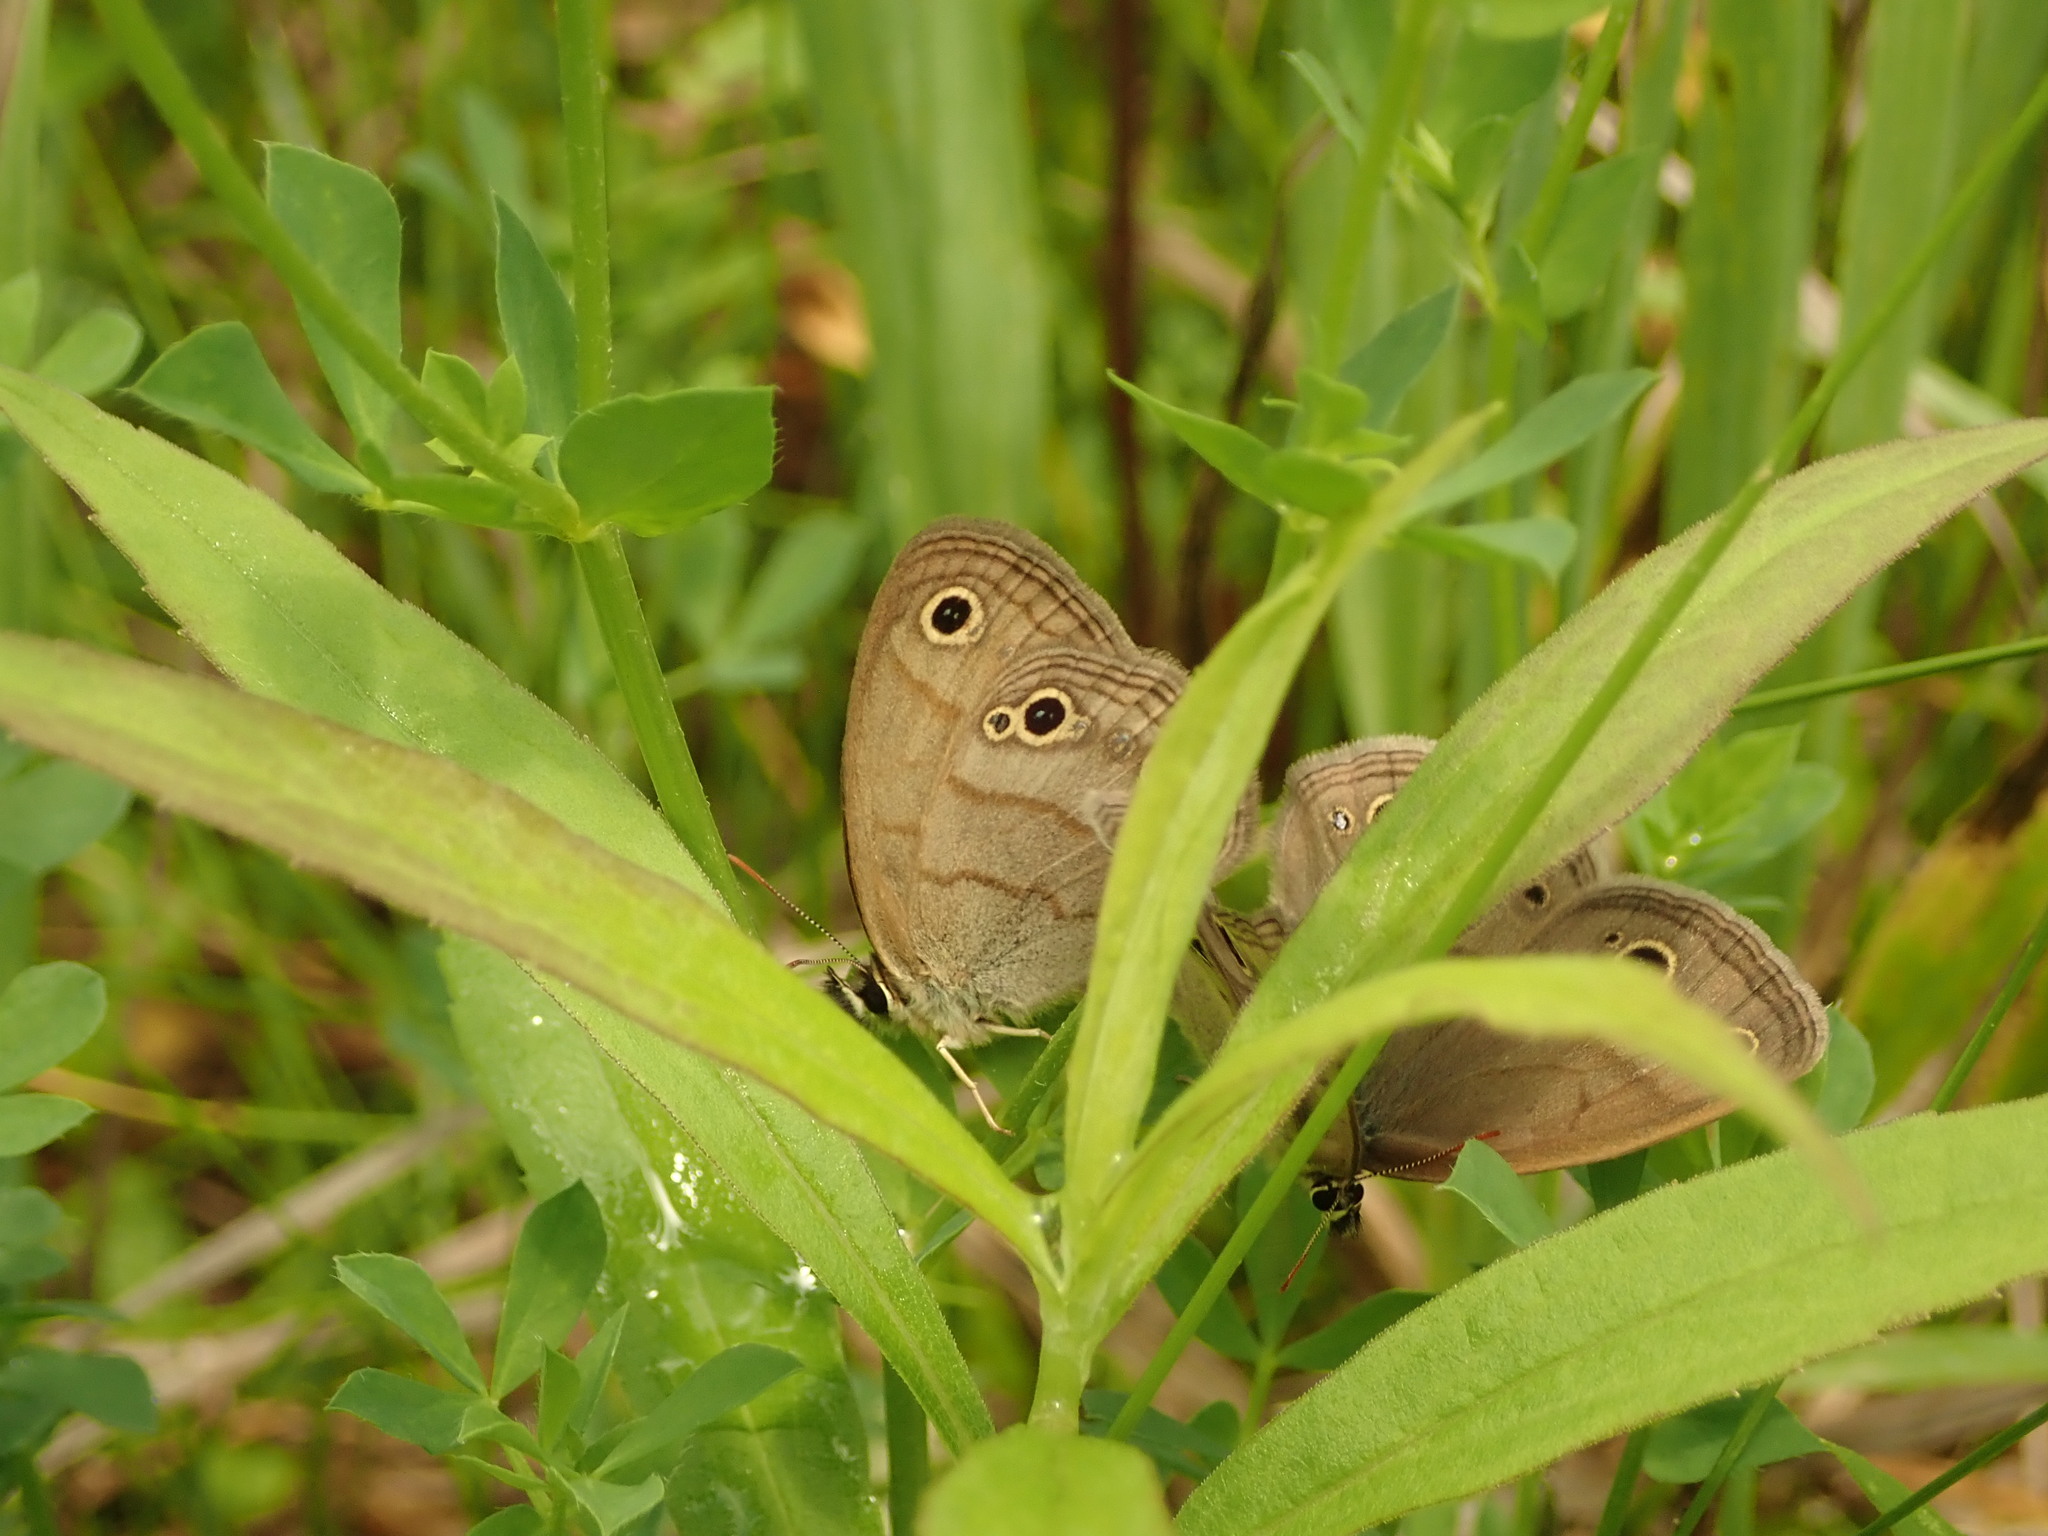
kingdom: Animalia
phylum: Arthropoda
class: Insecta
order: Lepidoptera
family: Nymphalidae
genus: Euptychia
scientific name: Euptychia cymela
